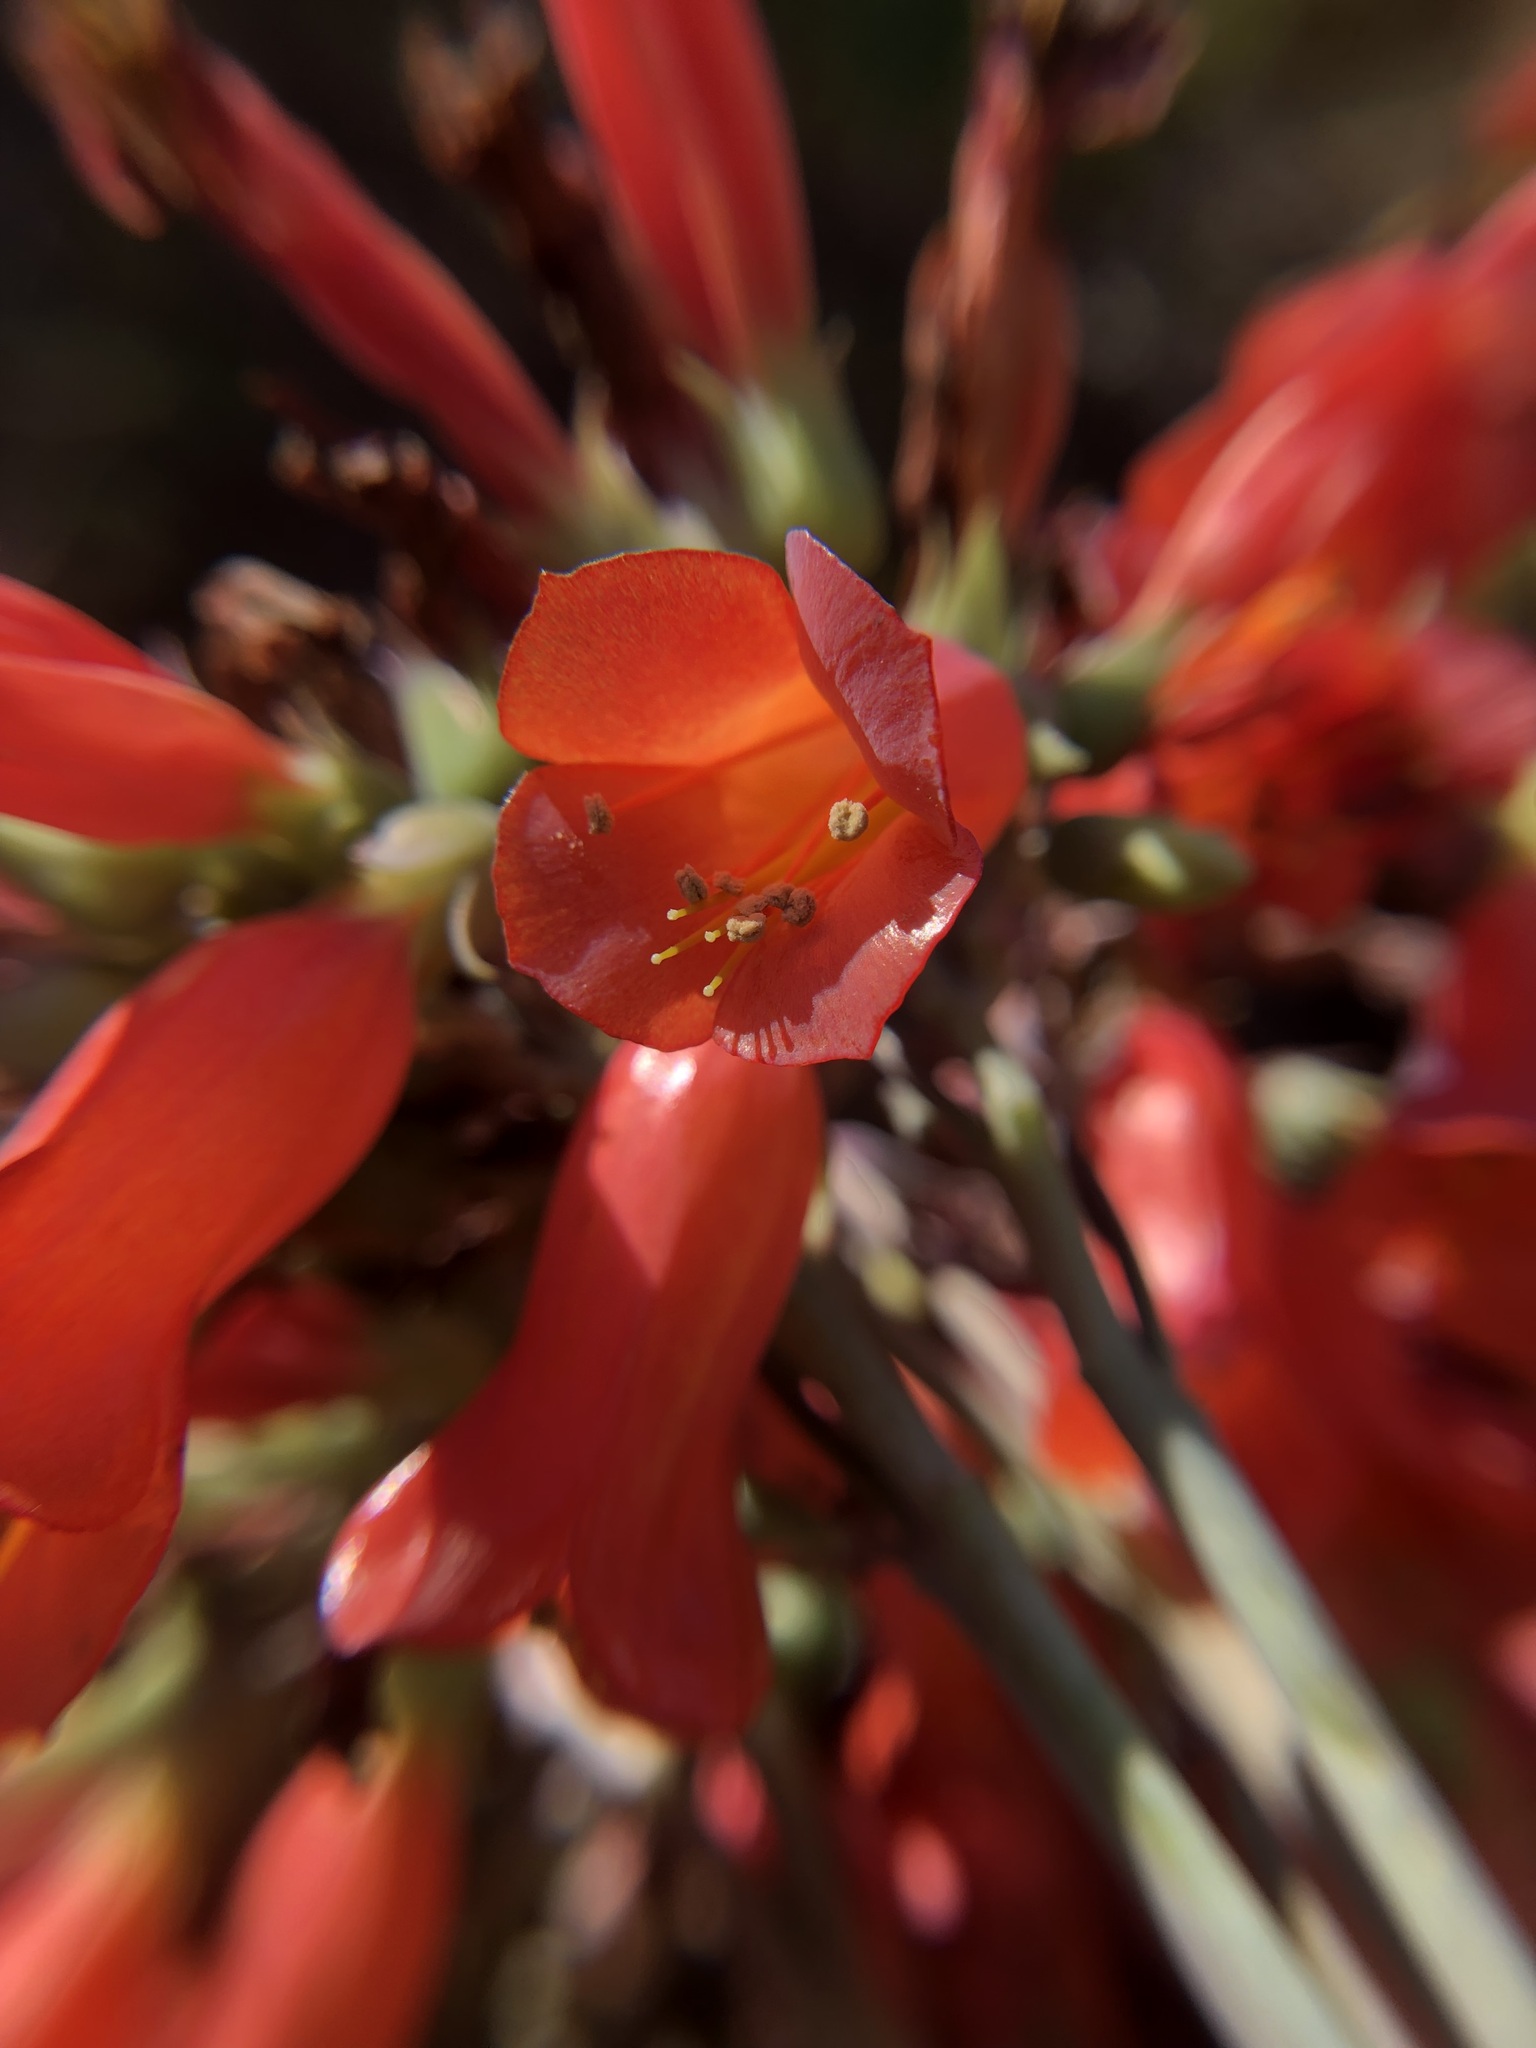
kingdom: Plantae
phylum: Tracheophyta
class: Magnoliopsida
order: Saxifragales
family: Crassulaceae
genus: Kalanchoe
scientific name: Kalanchoe delagoensis
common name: Chandelier plant
